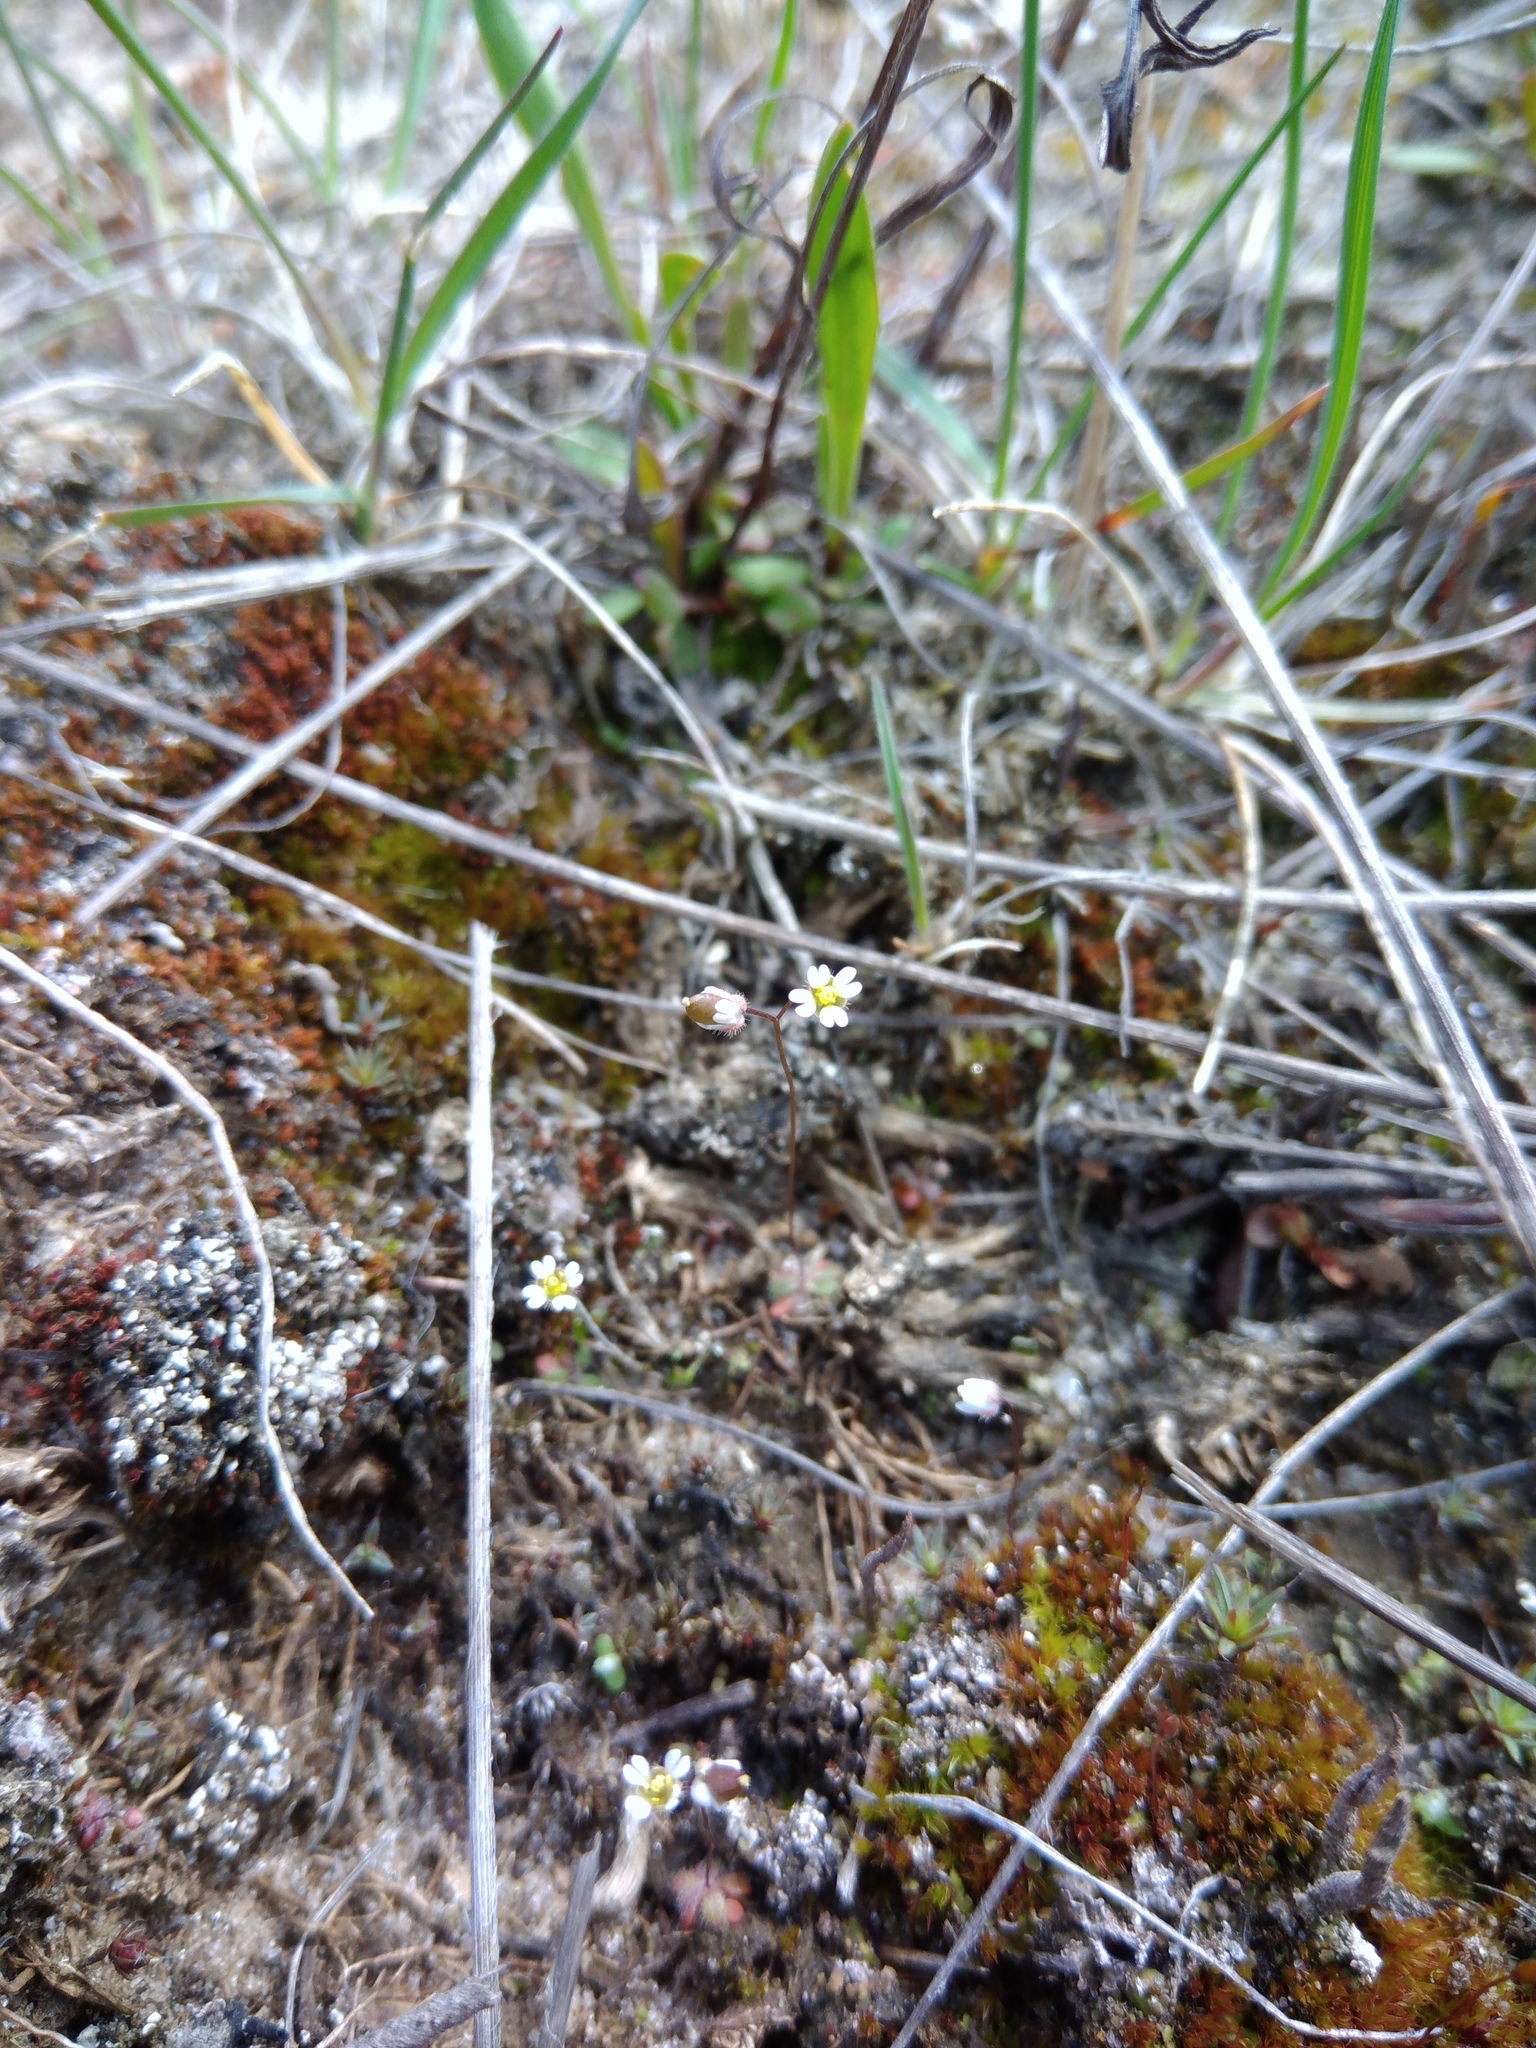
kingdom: Plantae
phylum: Tracheophyta
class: Magnoliopsida
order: Brassicales
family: Brassicaceae
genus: Draba
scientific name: Draba verna
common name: Spring draba
